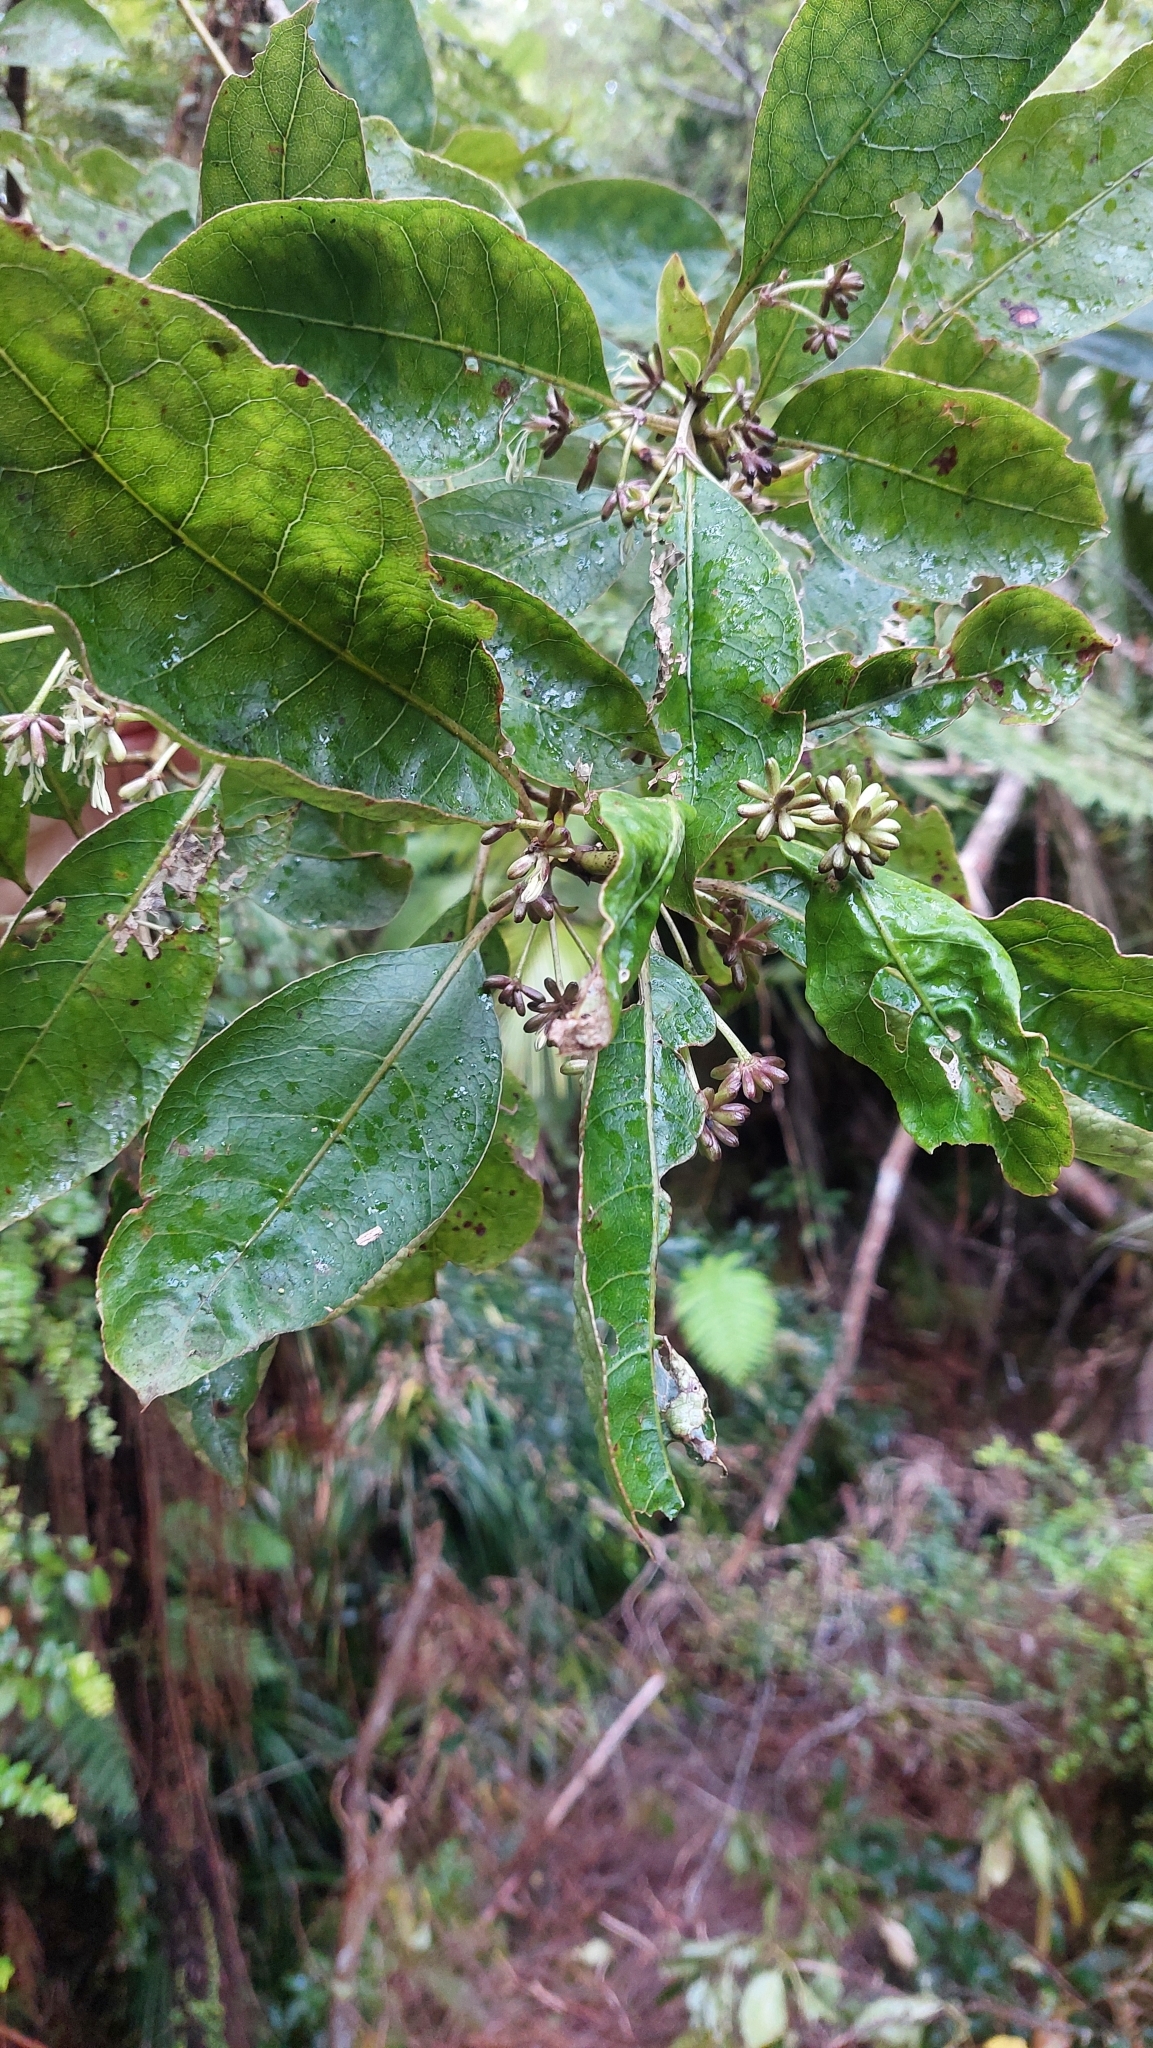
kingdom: Plantae
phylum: Tracheophyta
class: Magnoliopsida
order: Gentianales
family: Rubiaceae
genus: Coprosma
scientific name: Coprosma autumnalis
